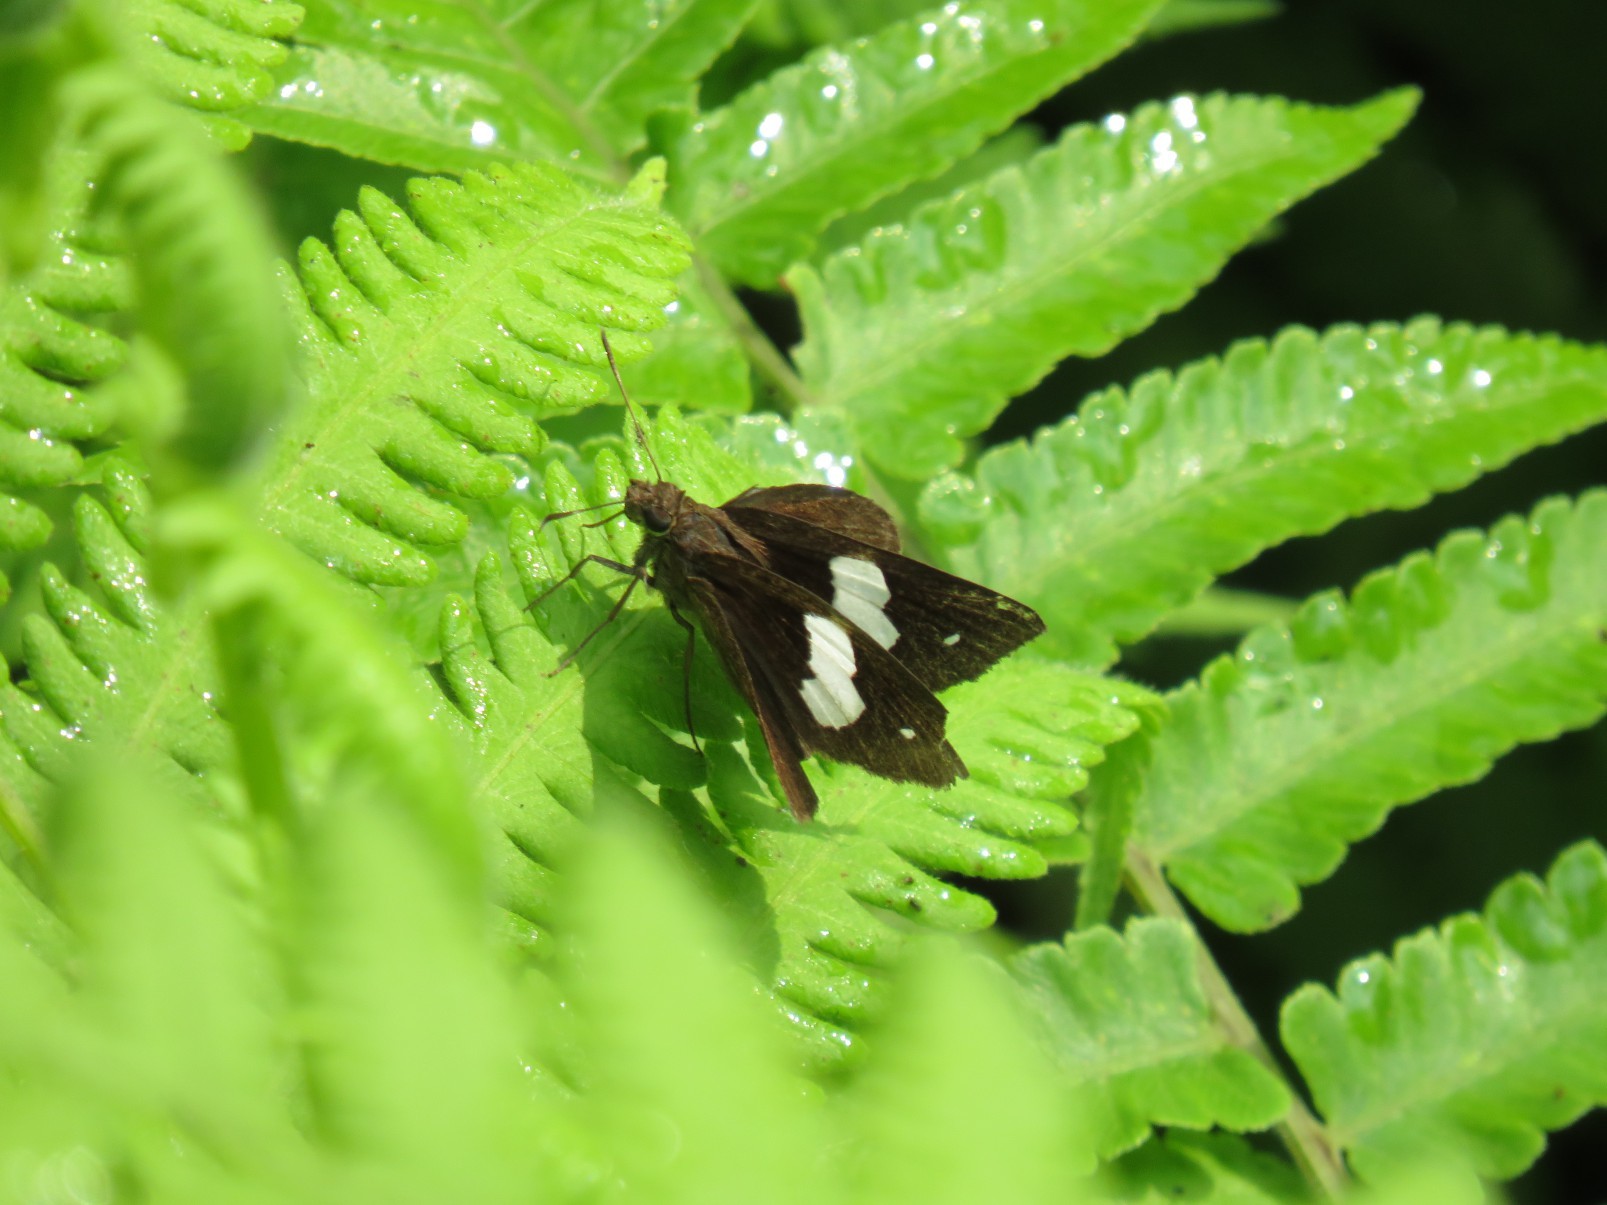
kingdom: Animalia
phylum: Arthropoda
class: Insecta
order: Lepidoptera
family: Hesperiidae
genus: Notocrypta
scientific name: Notocrypta paralysos
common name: Common banded demon
